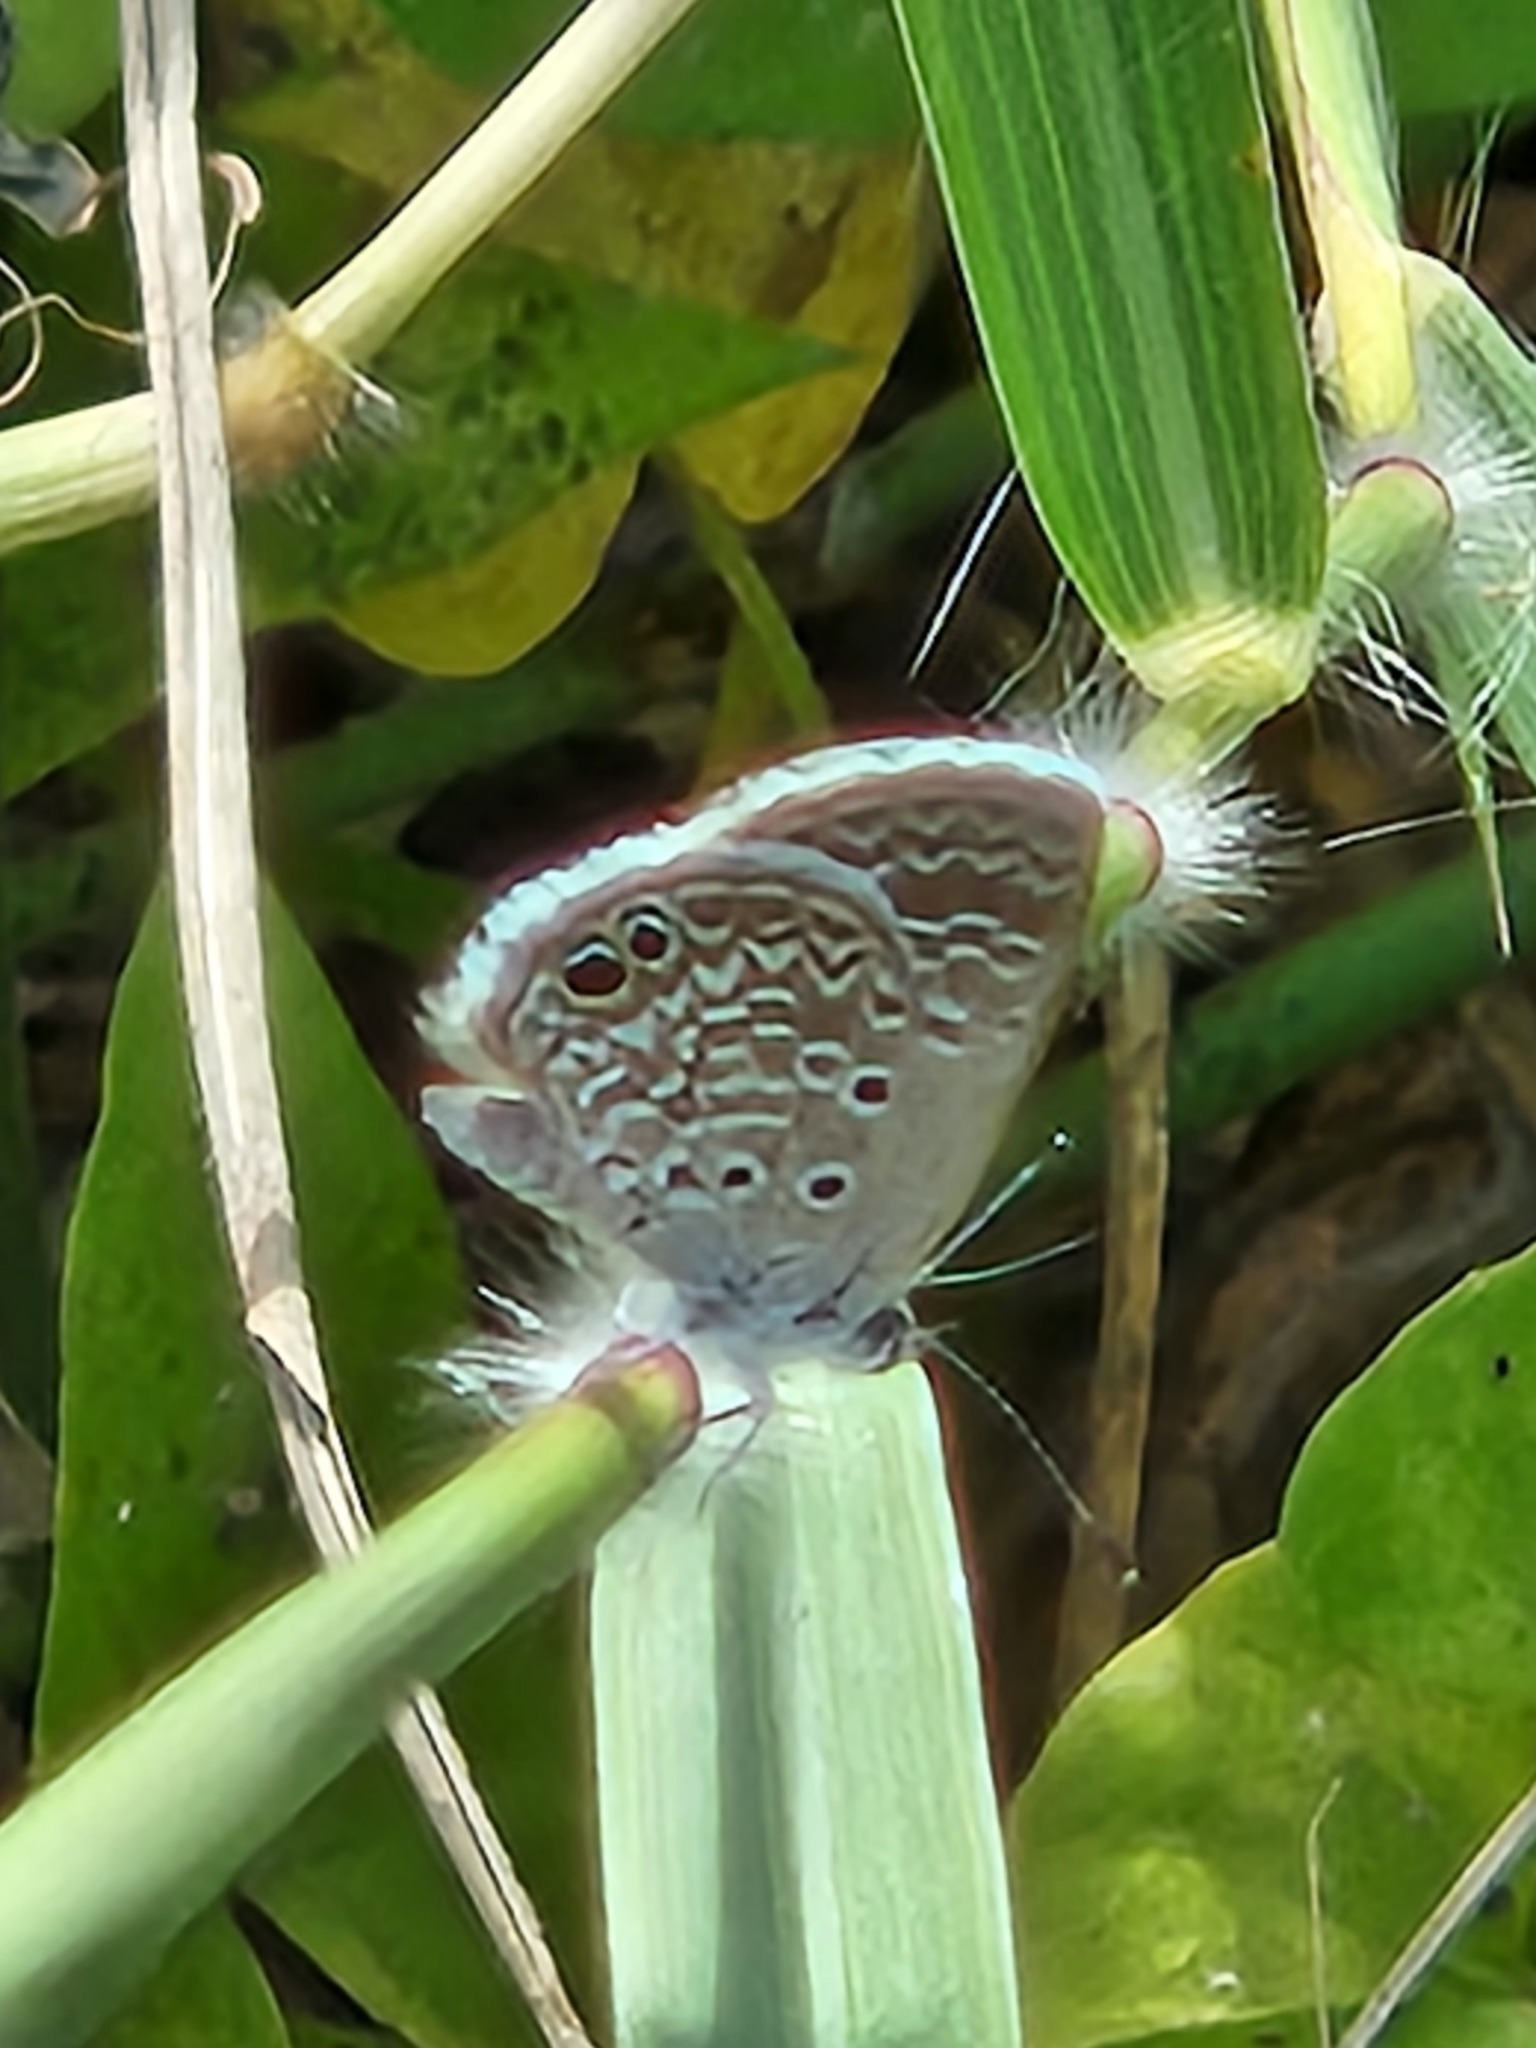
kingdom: Animalia
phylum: Arthropoda
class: Insecta
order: Lepidoptera
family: Lycaenidae
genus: Hemiargus
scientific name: Hemiargus ceraunus
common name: Ceraunus blue
